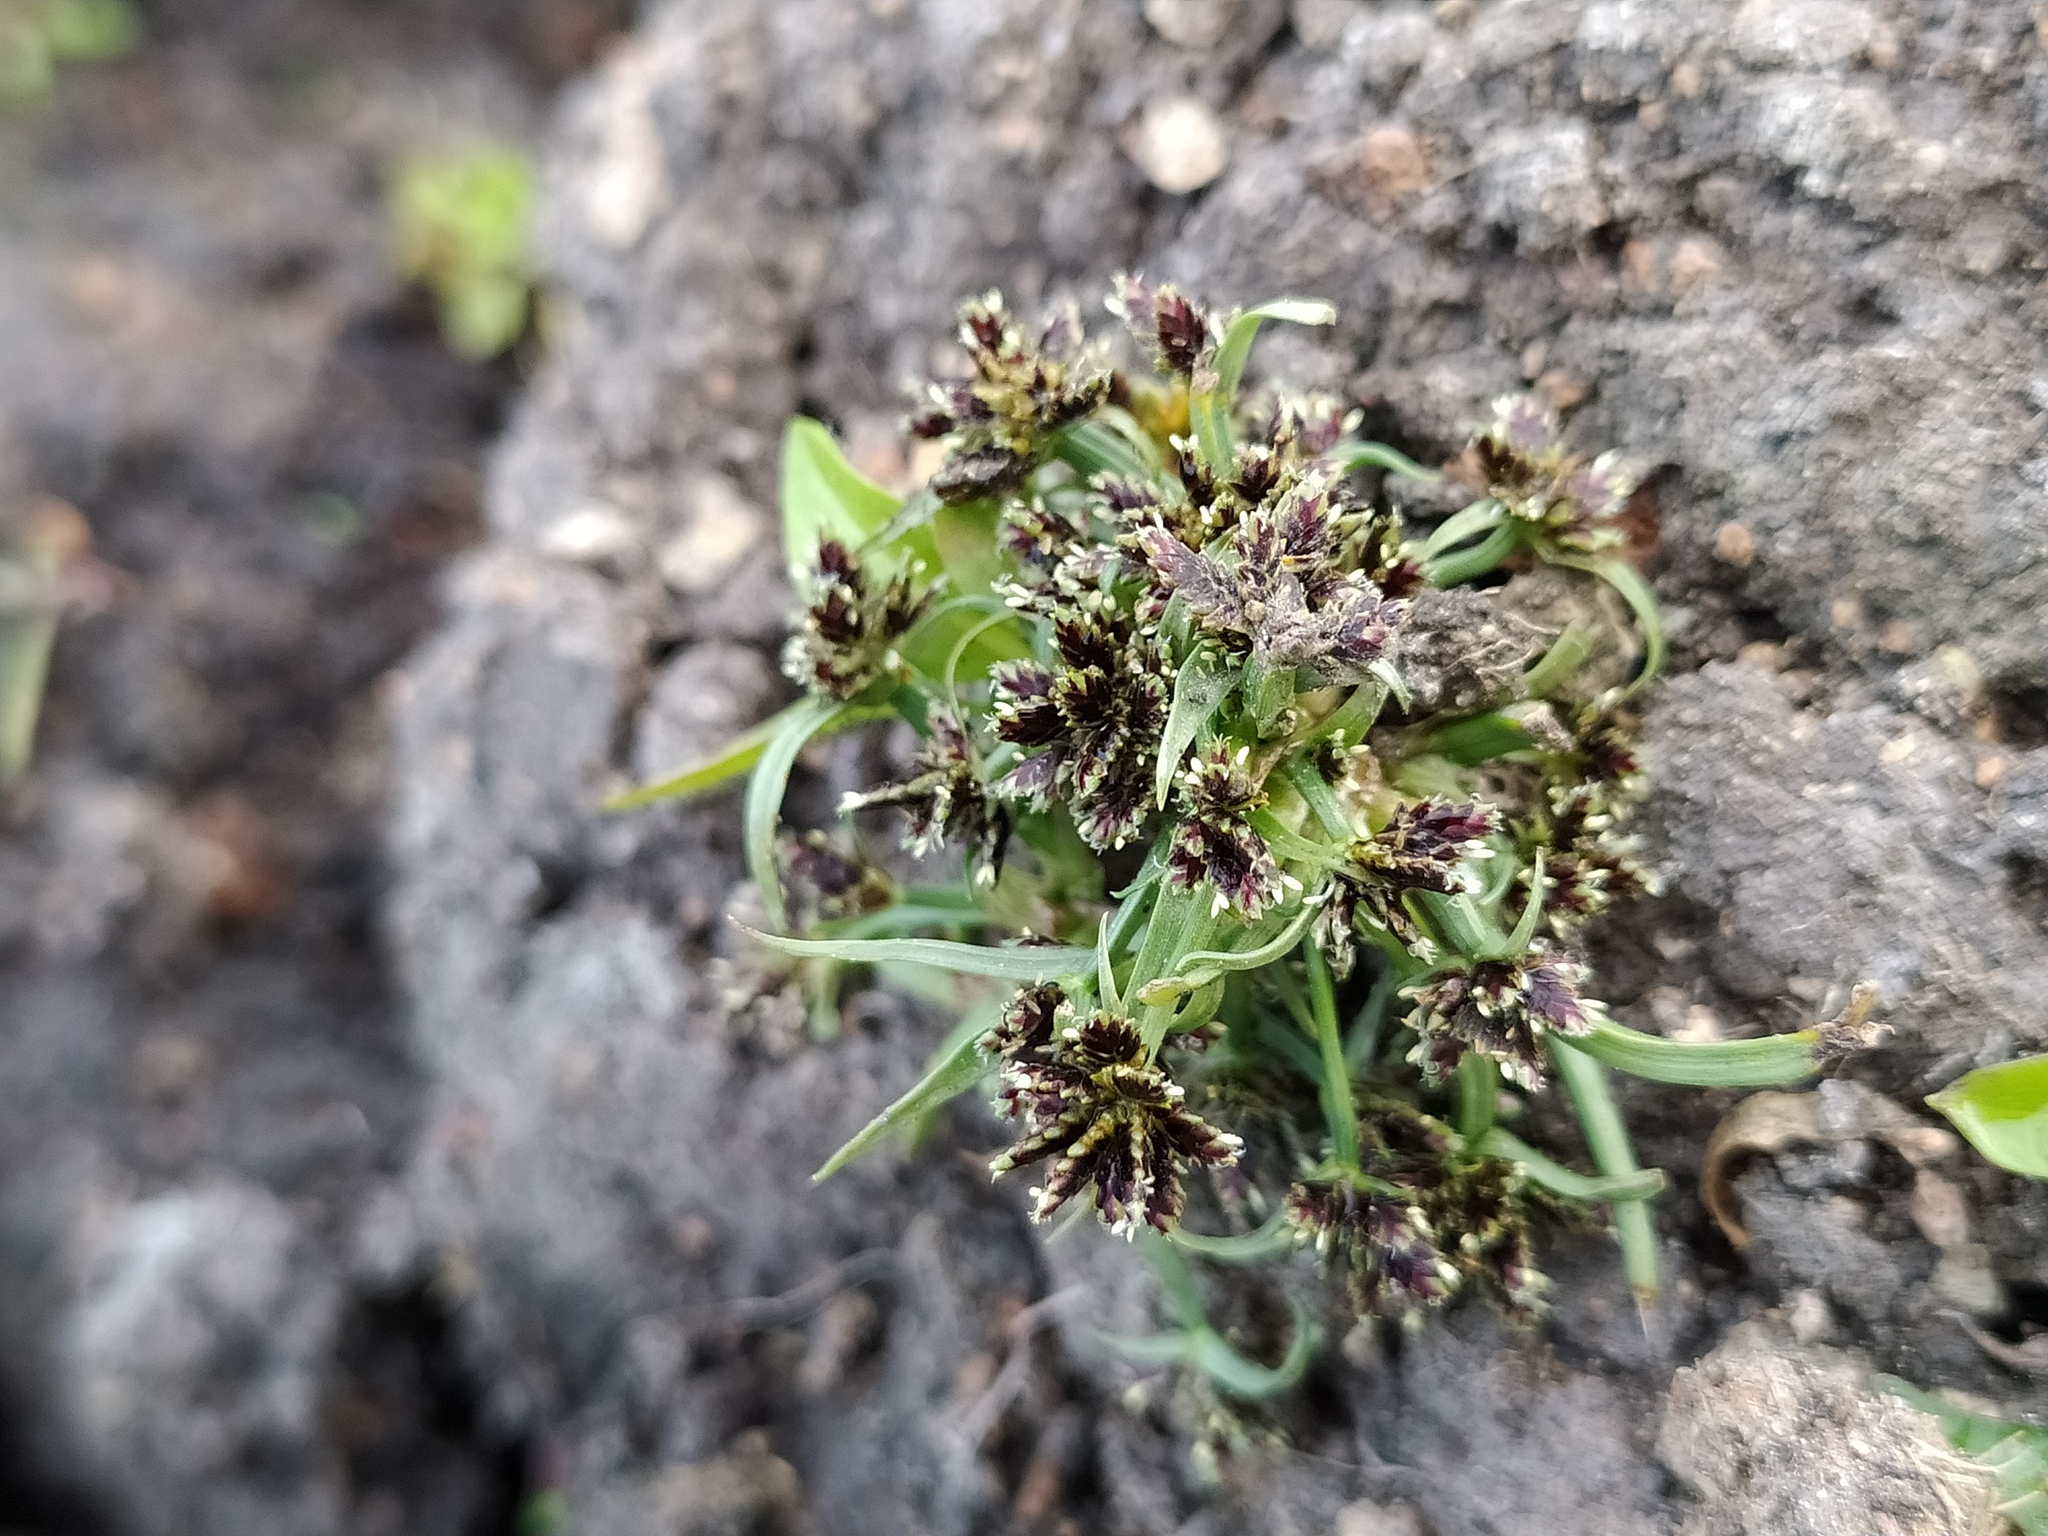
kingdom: Plantae
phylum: Tracheophyta
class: Liliopsida
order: Poales
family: Cyperaceae
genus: Cyperus
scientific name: Cyperus fuscus
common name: Brown galingale
